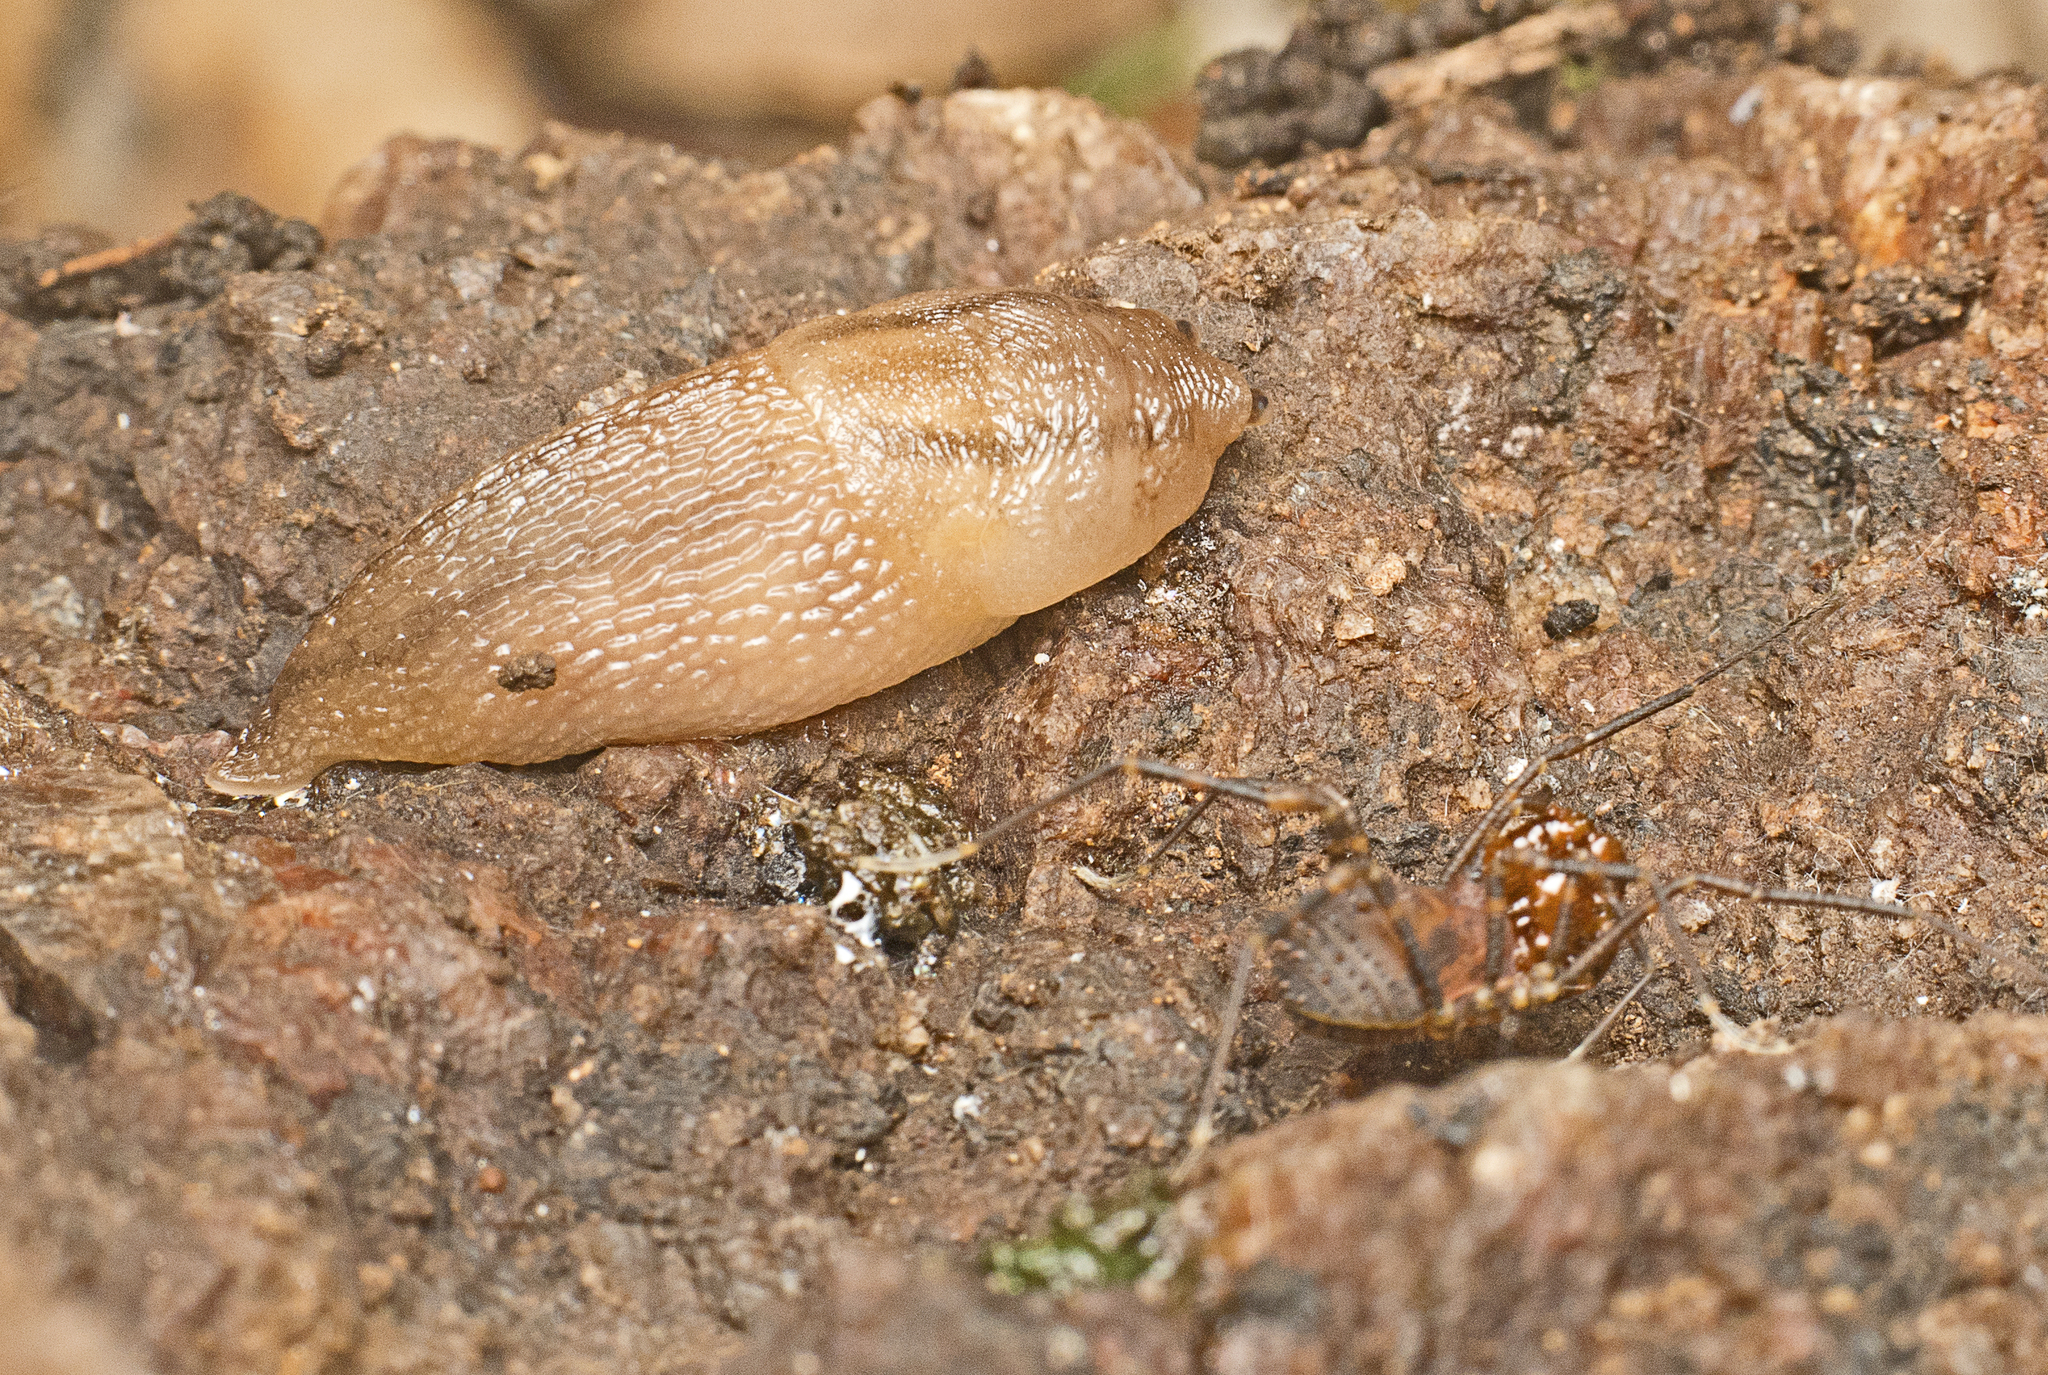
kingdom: Animalia
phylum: Mollusca
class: Gastropoda
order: Stylommatophora
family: Limacidae
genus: Ambigolimax
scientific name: Ambigolimax
